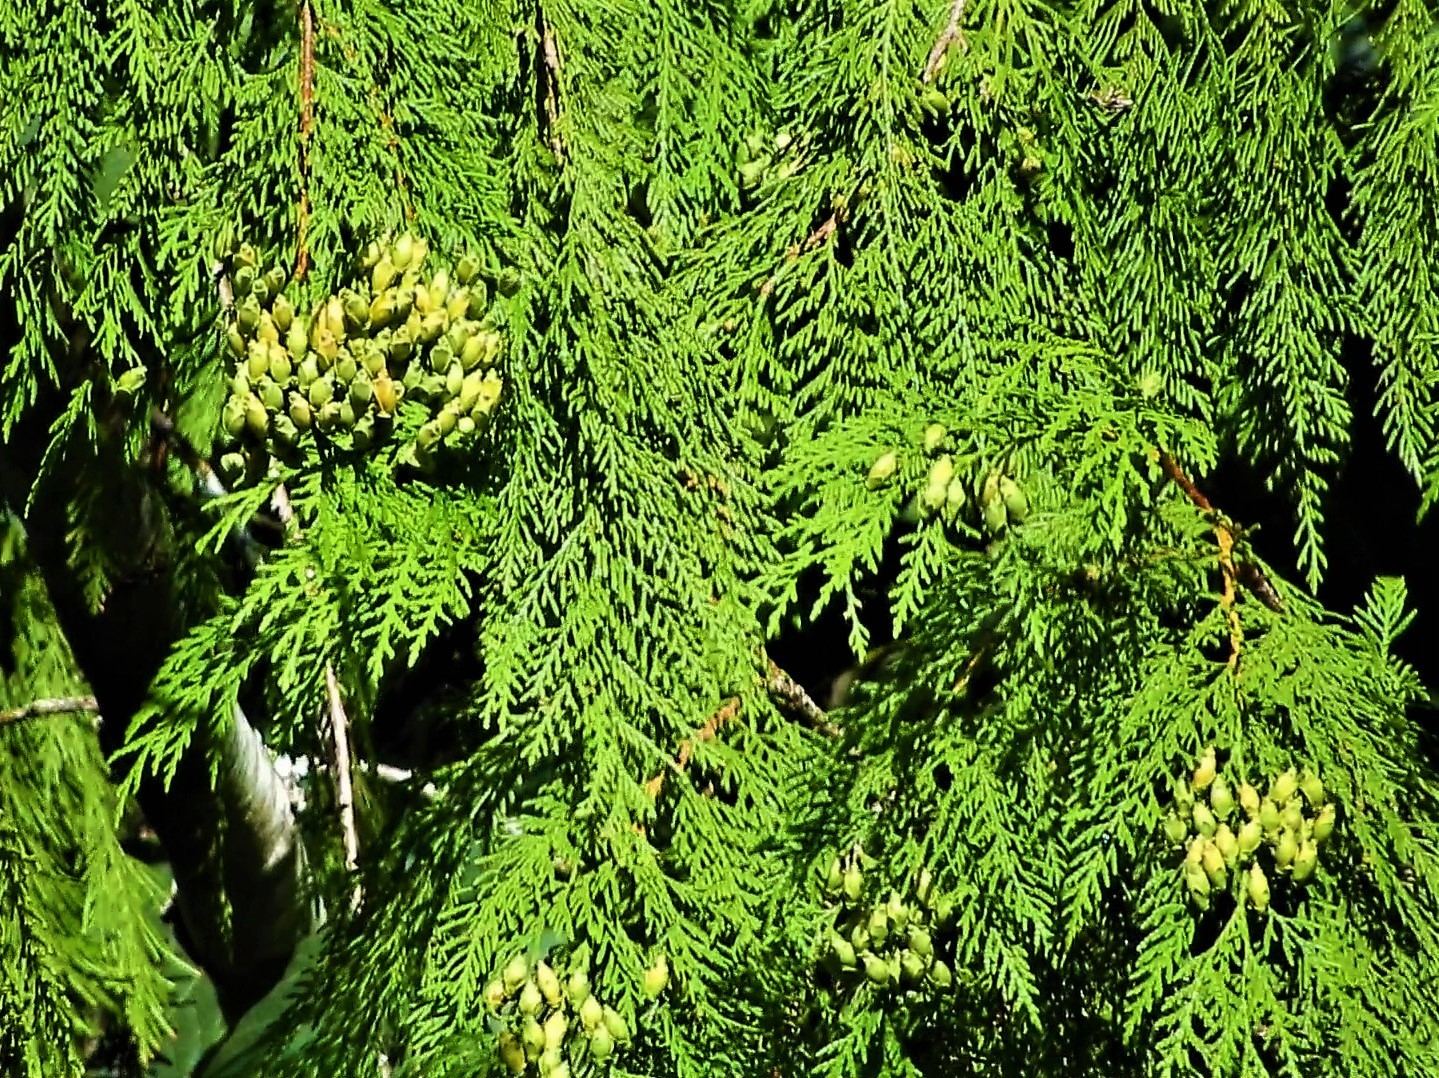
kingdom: Plantae
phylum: Tracheophyta
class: Pinopsida
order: Pinales
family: Cupressaceae
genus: Thuja
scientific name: Thuja plicata
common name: Western red-cedar
